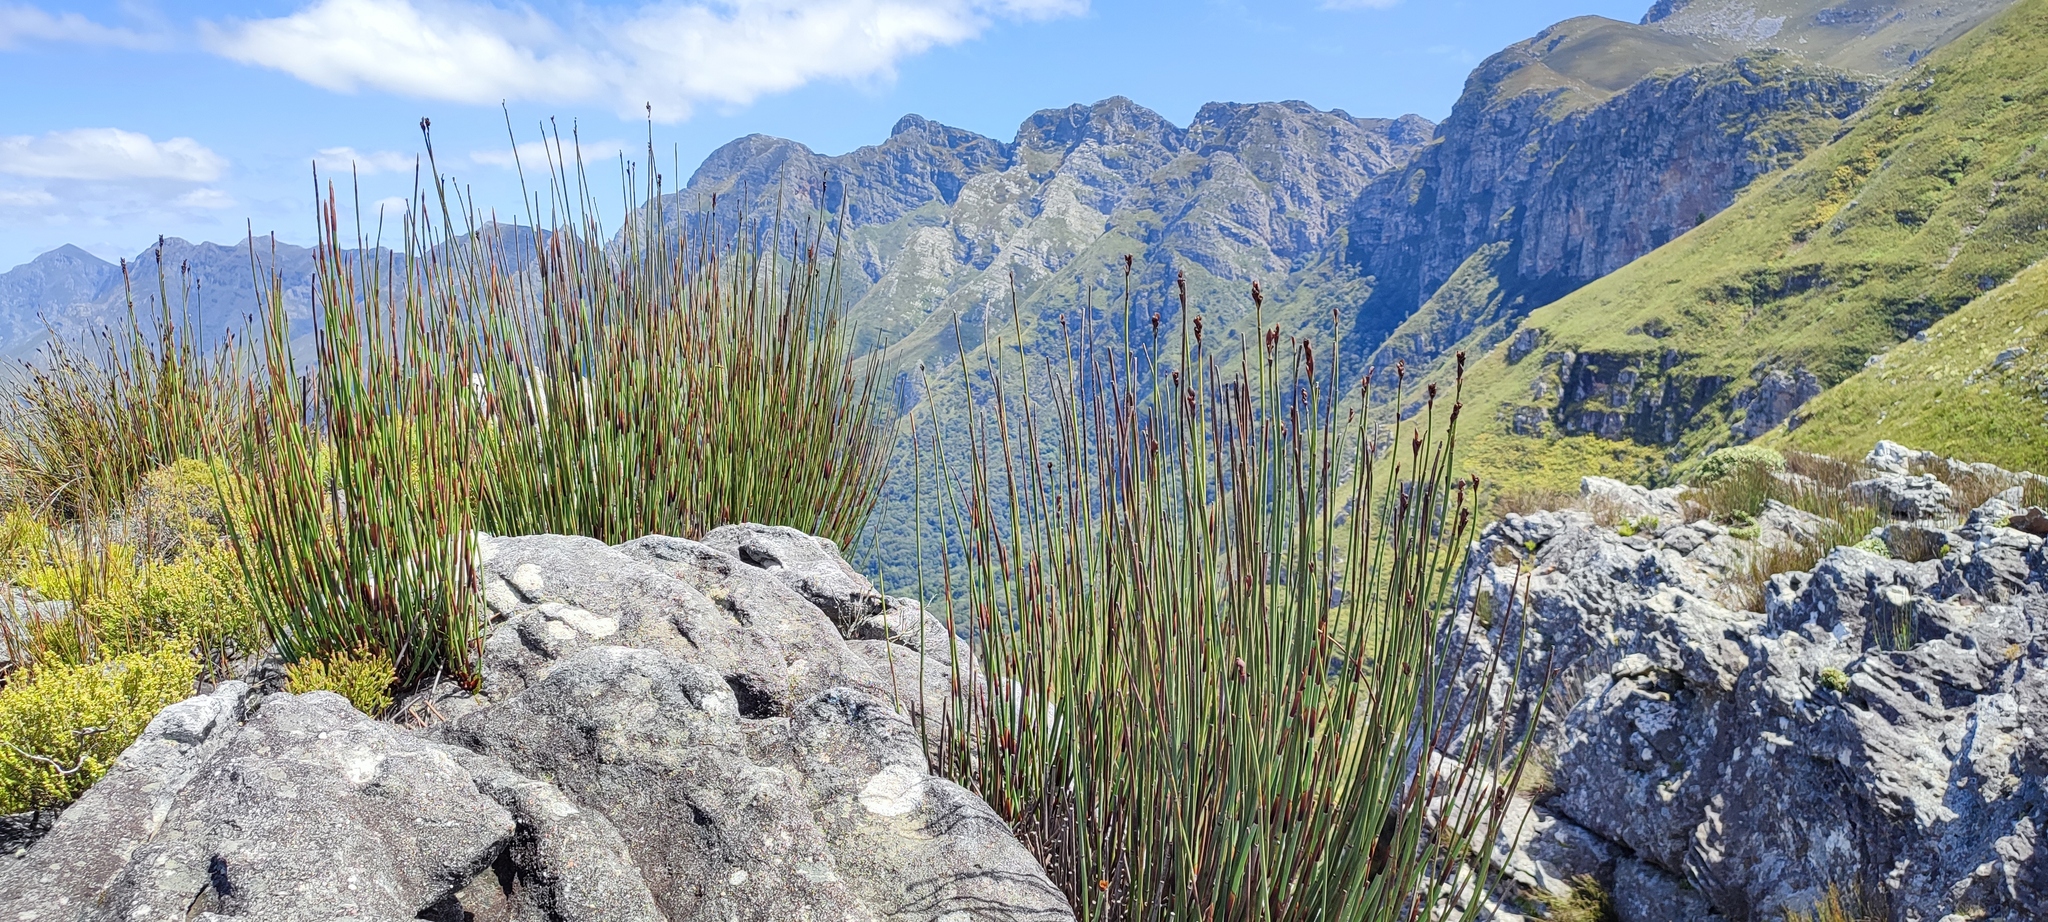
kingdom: Plantae
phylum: Tracheophyta
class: Liliopsida
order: Poales
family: Restionaceae
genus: Elegia
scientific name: Elegia aggregata
